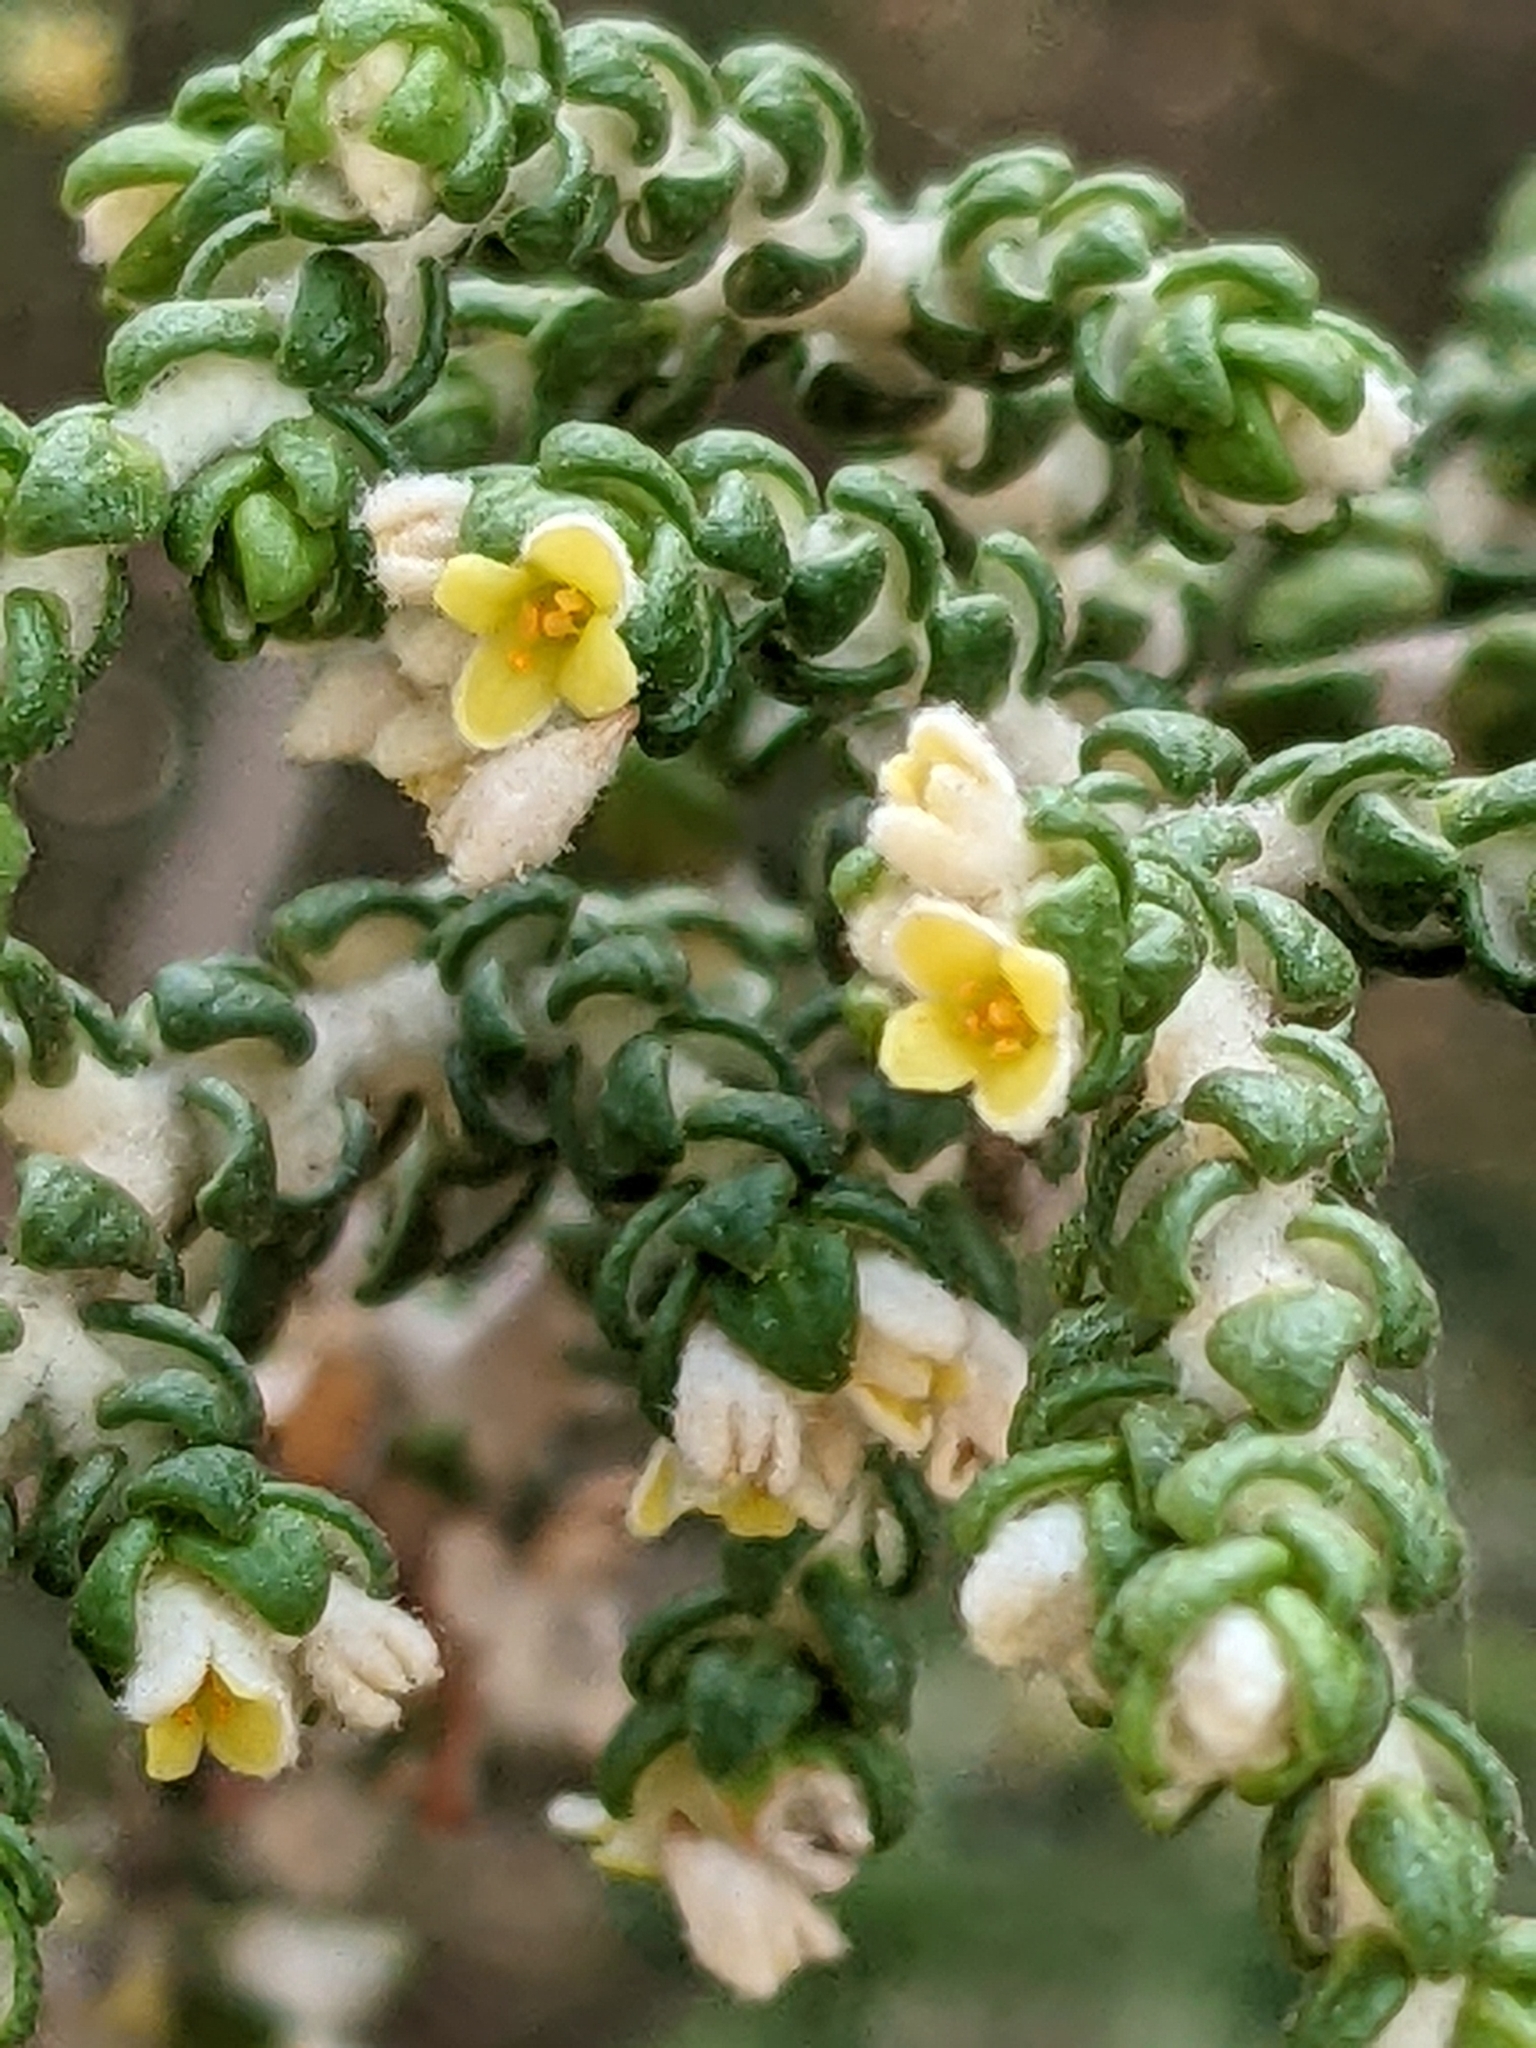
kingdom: Plantae
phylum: Tracheophyta
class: Magnoliopsida
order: Malvales
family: Thymelaeaceae
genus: Thymelaea
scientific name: Thymelaea hirsuta
